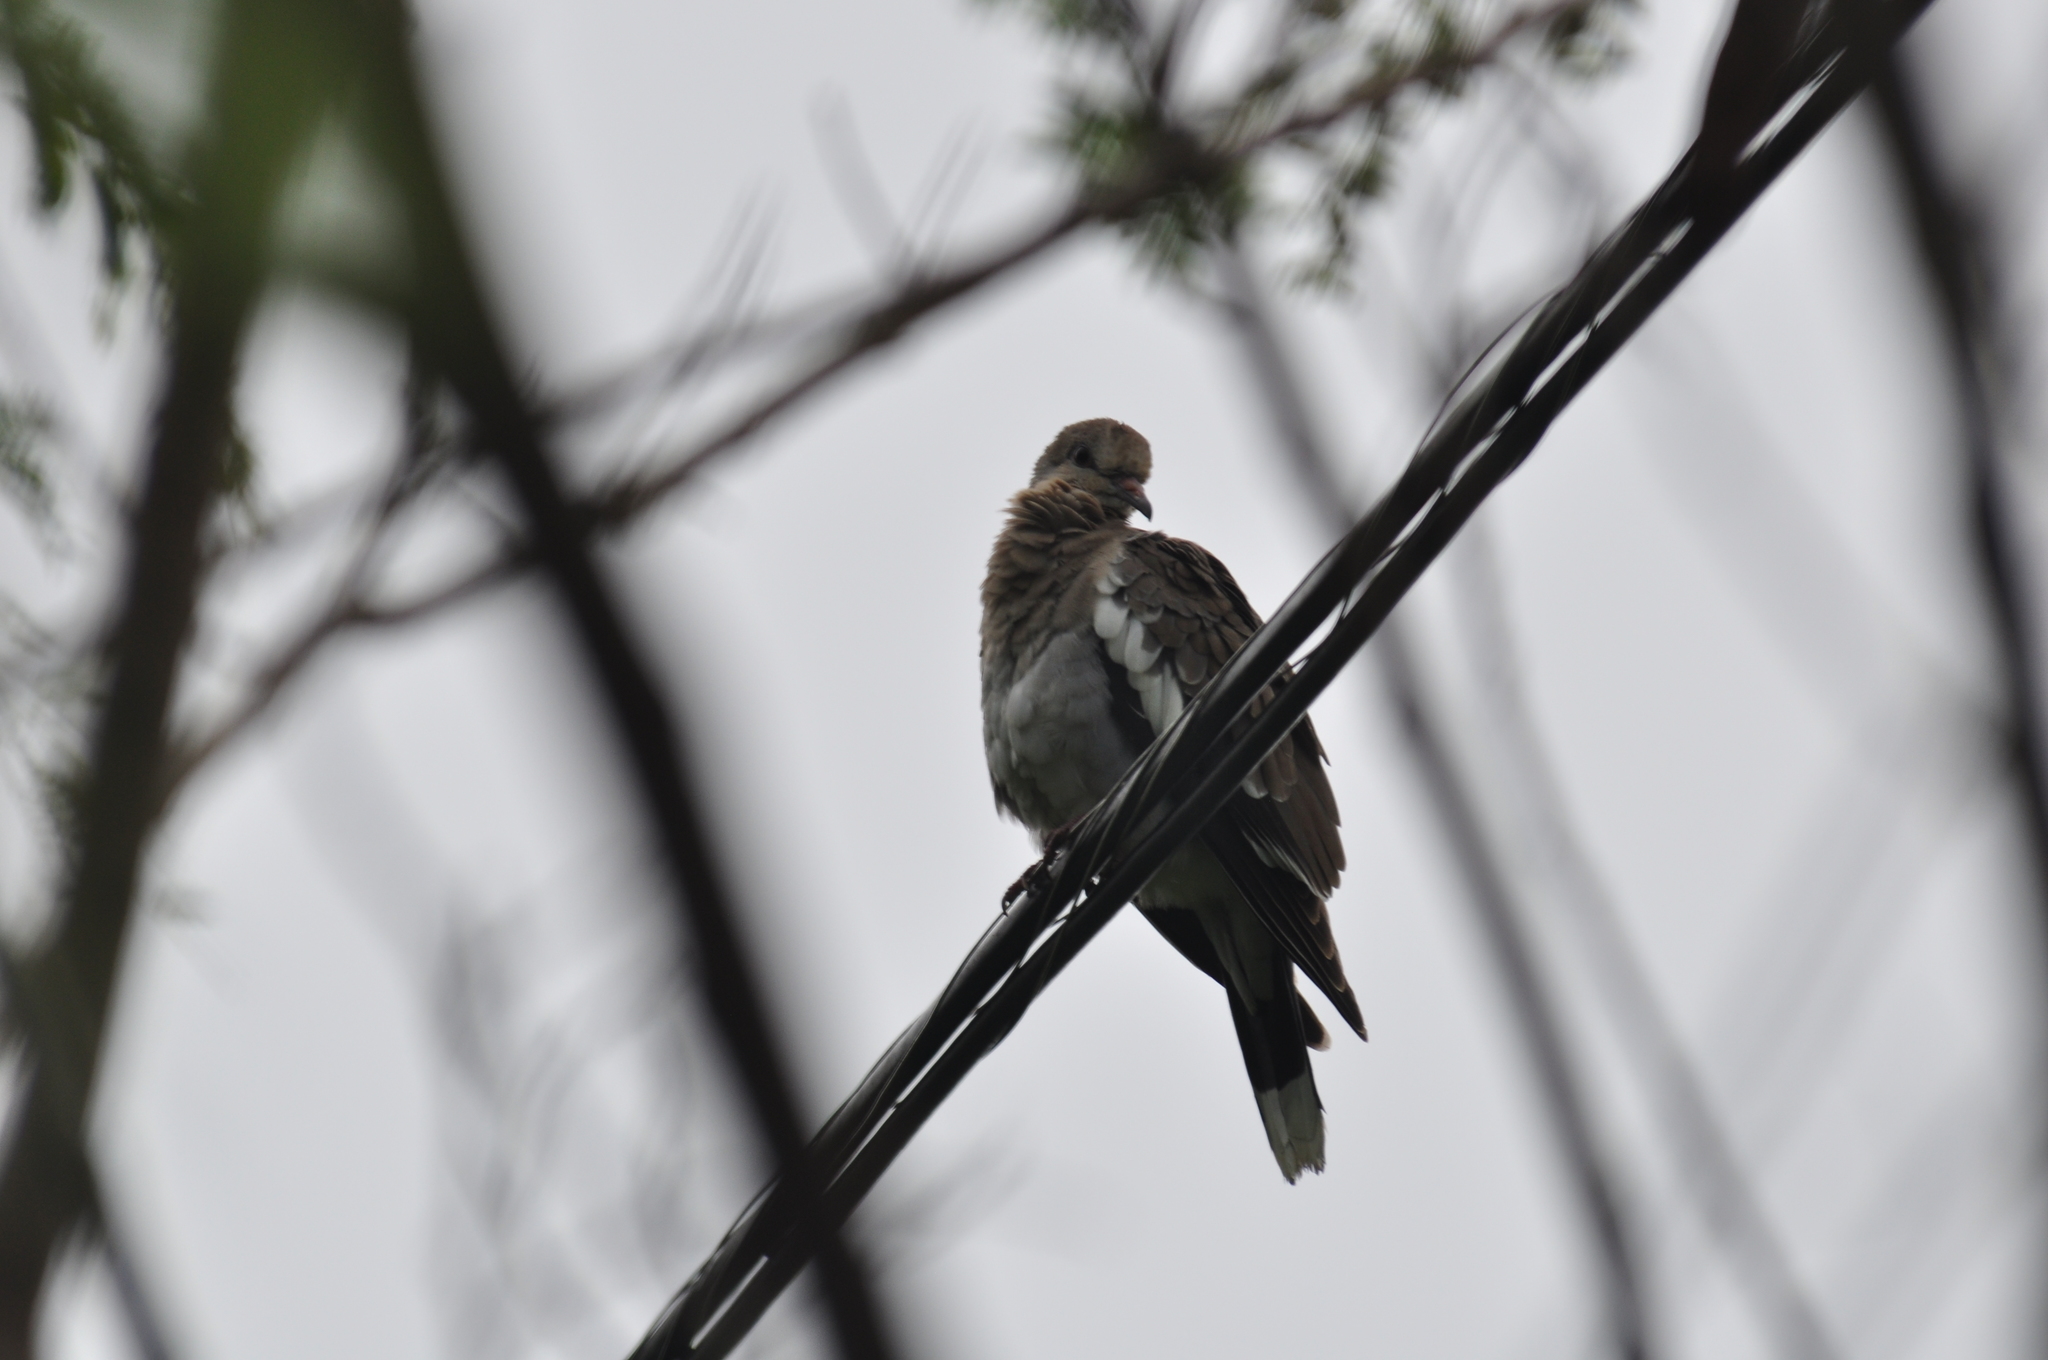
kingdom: Animalia
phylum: Chordata
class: Aves
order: Columbiformes
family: Columbidae
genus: Zenaida
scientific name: Zenaida asiatica
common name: White-winged dove
